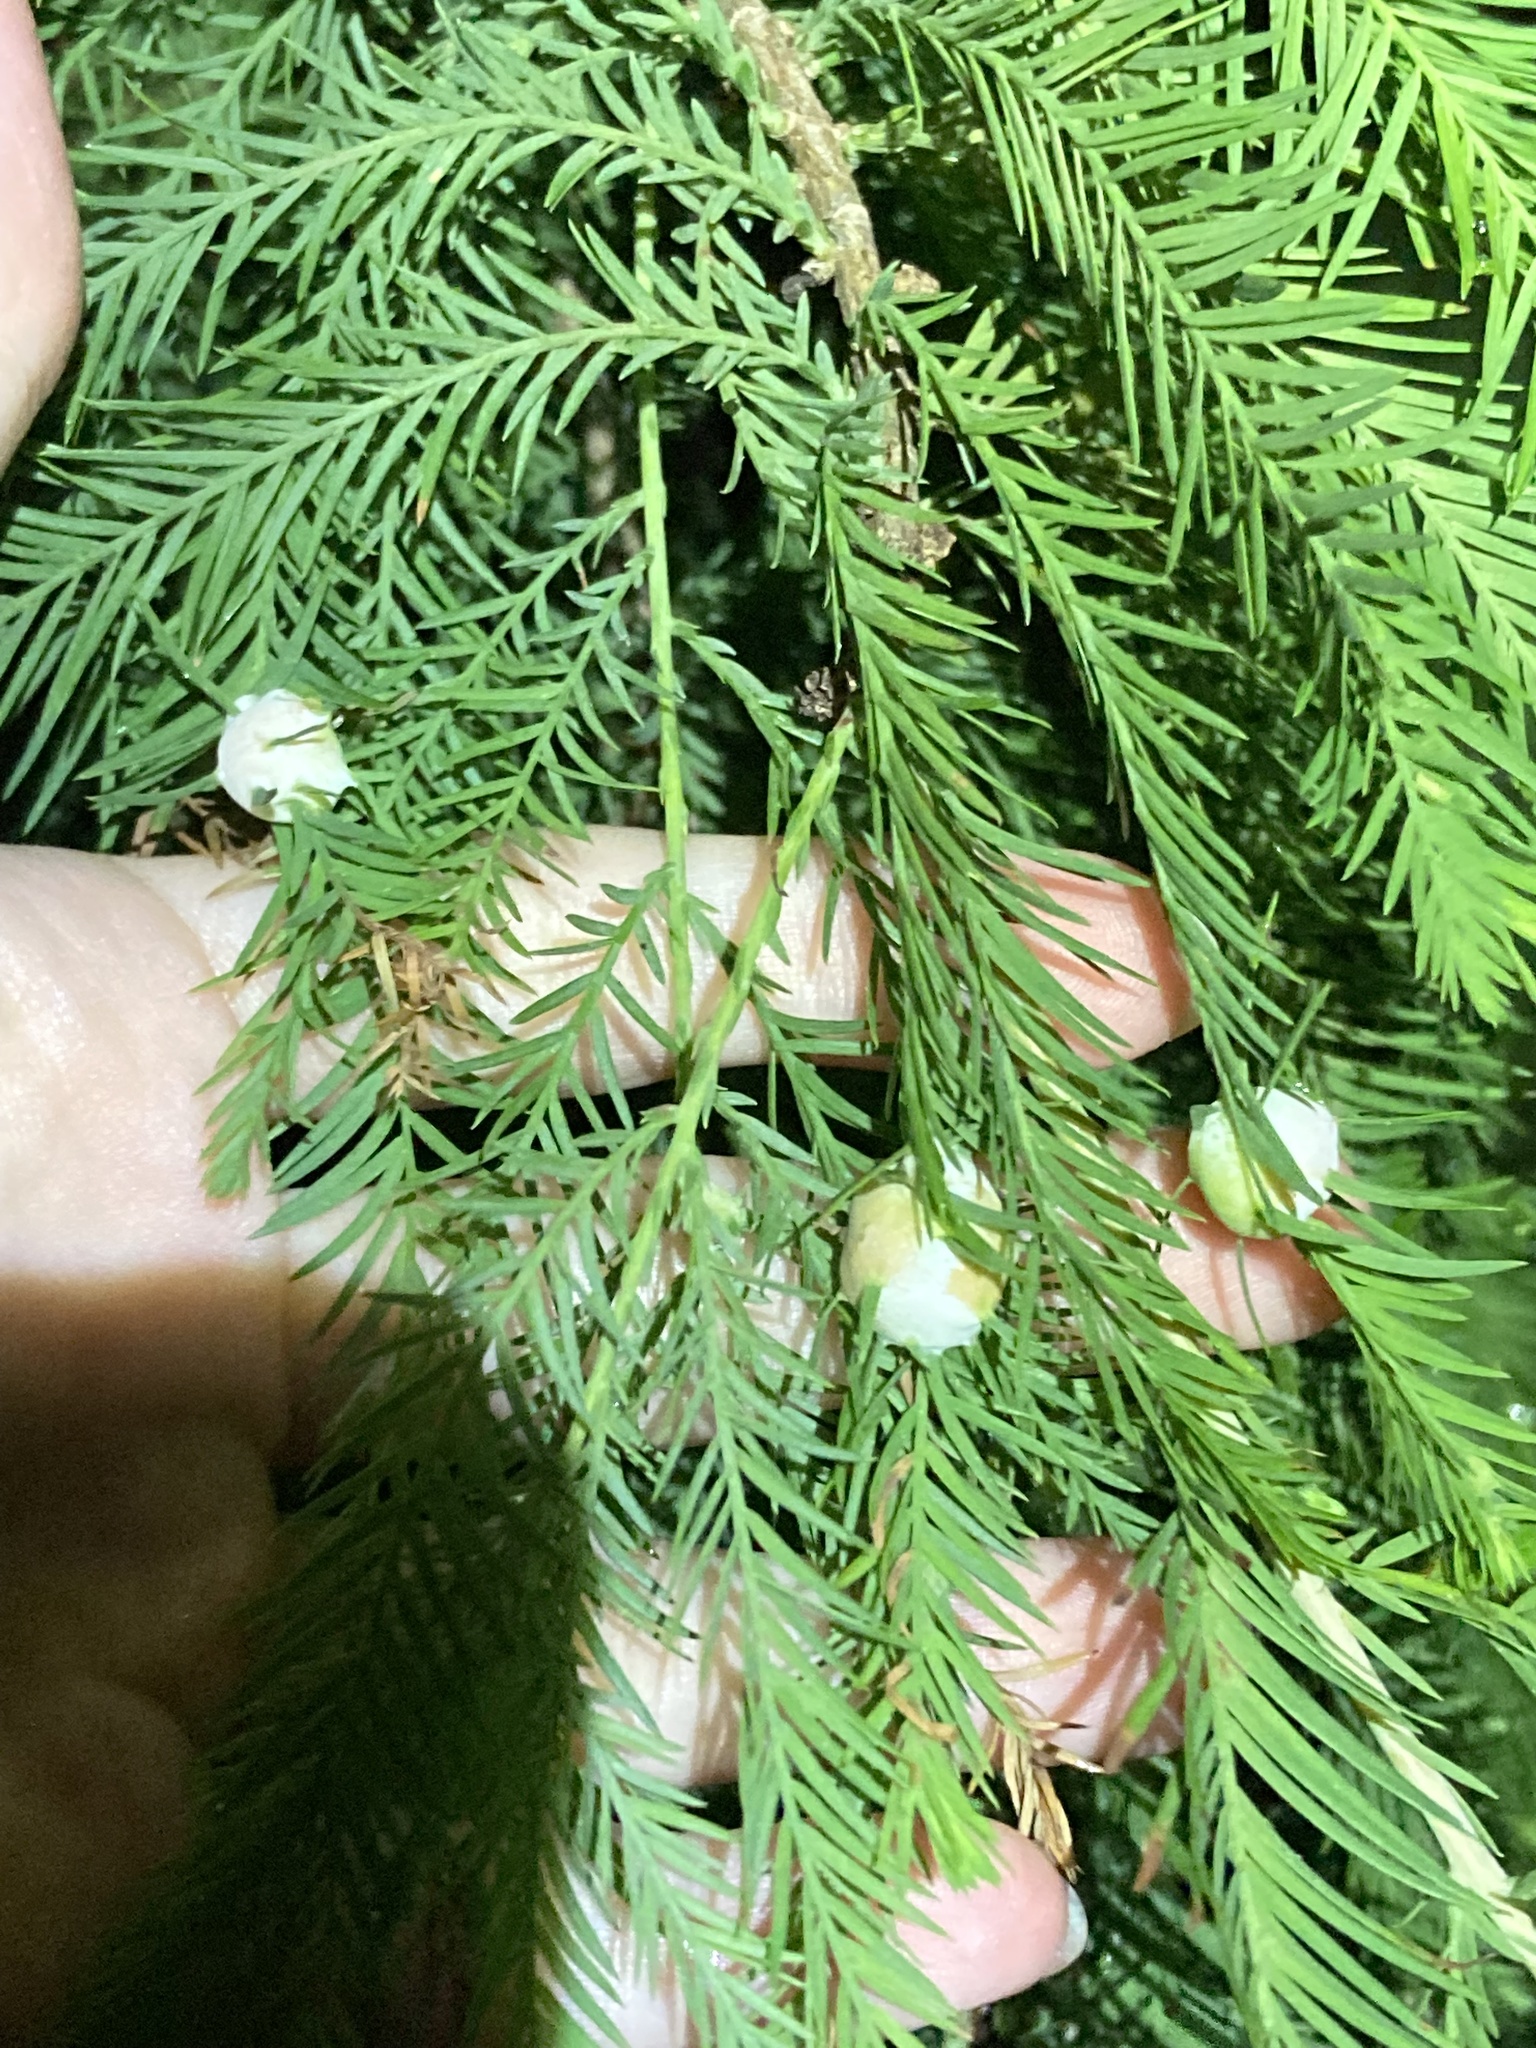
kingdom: Animalia
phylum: Arthropoda
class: Insecta
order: Diptera
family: Cecidomyiidae
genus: Taxodiomyia
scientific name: Taxodiomyia cupressiananassa
